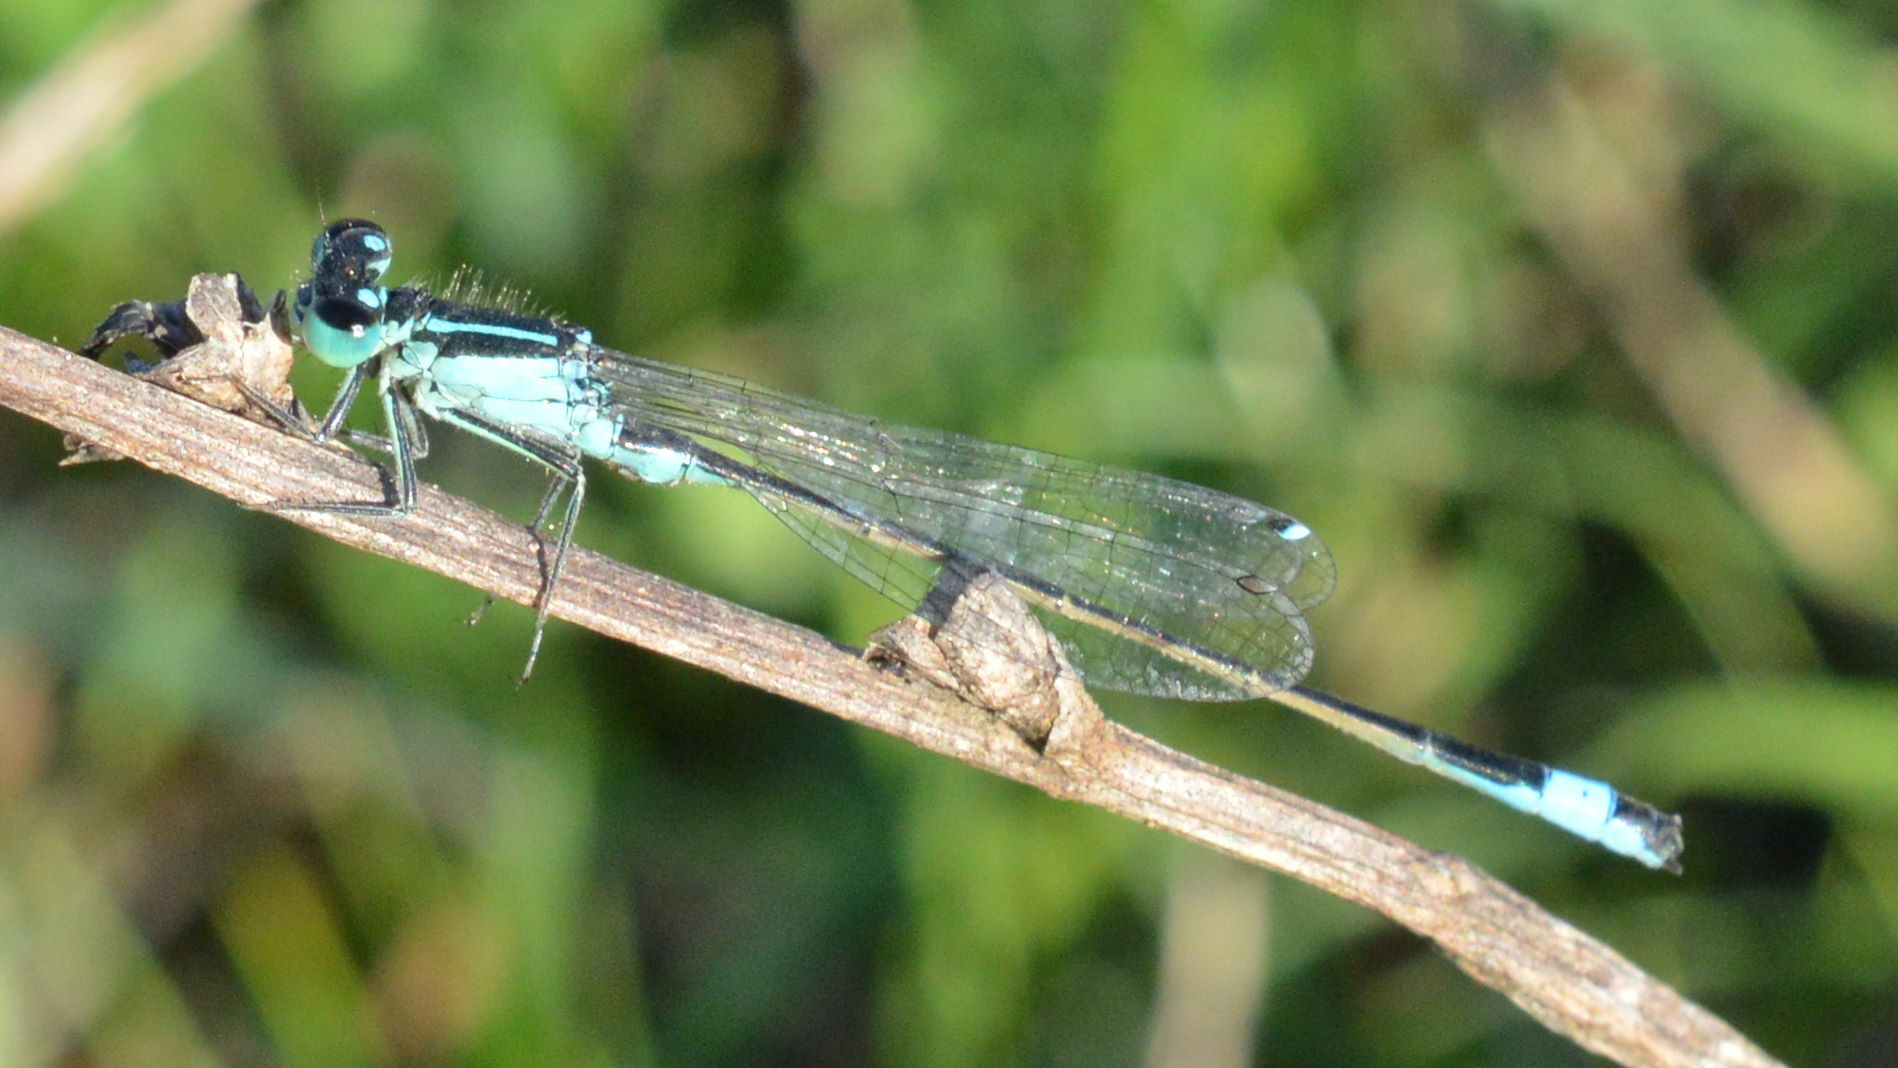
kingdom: Animalia
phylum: Arthropoda
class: Insecta
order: Odonata
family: Coenagrionidae
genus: Ischnura
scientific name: Ischnura elegans
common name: Blue-tailed damselfly
